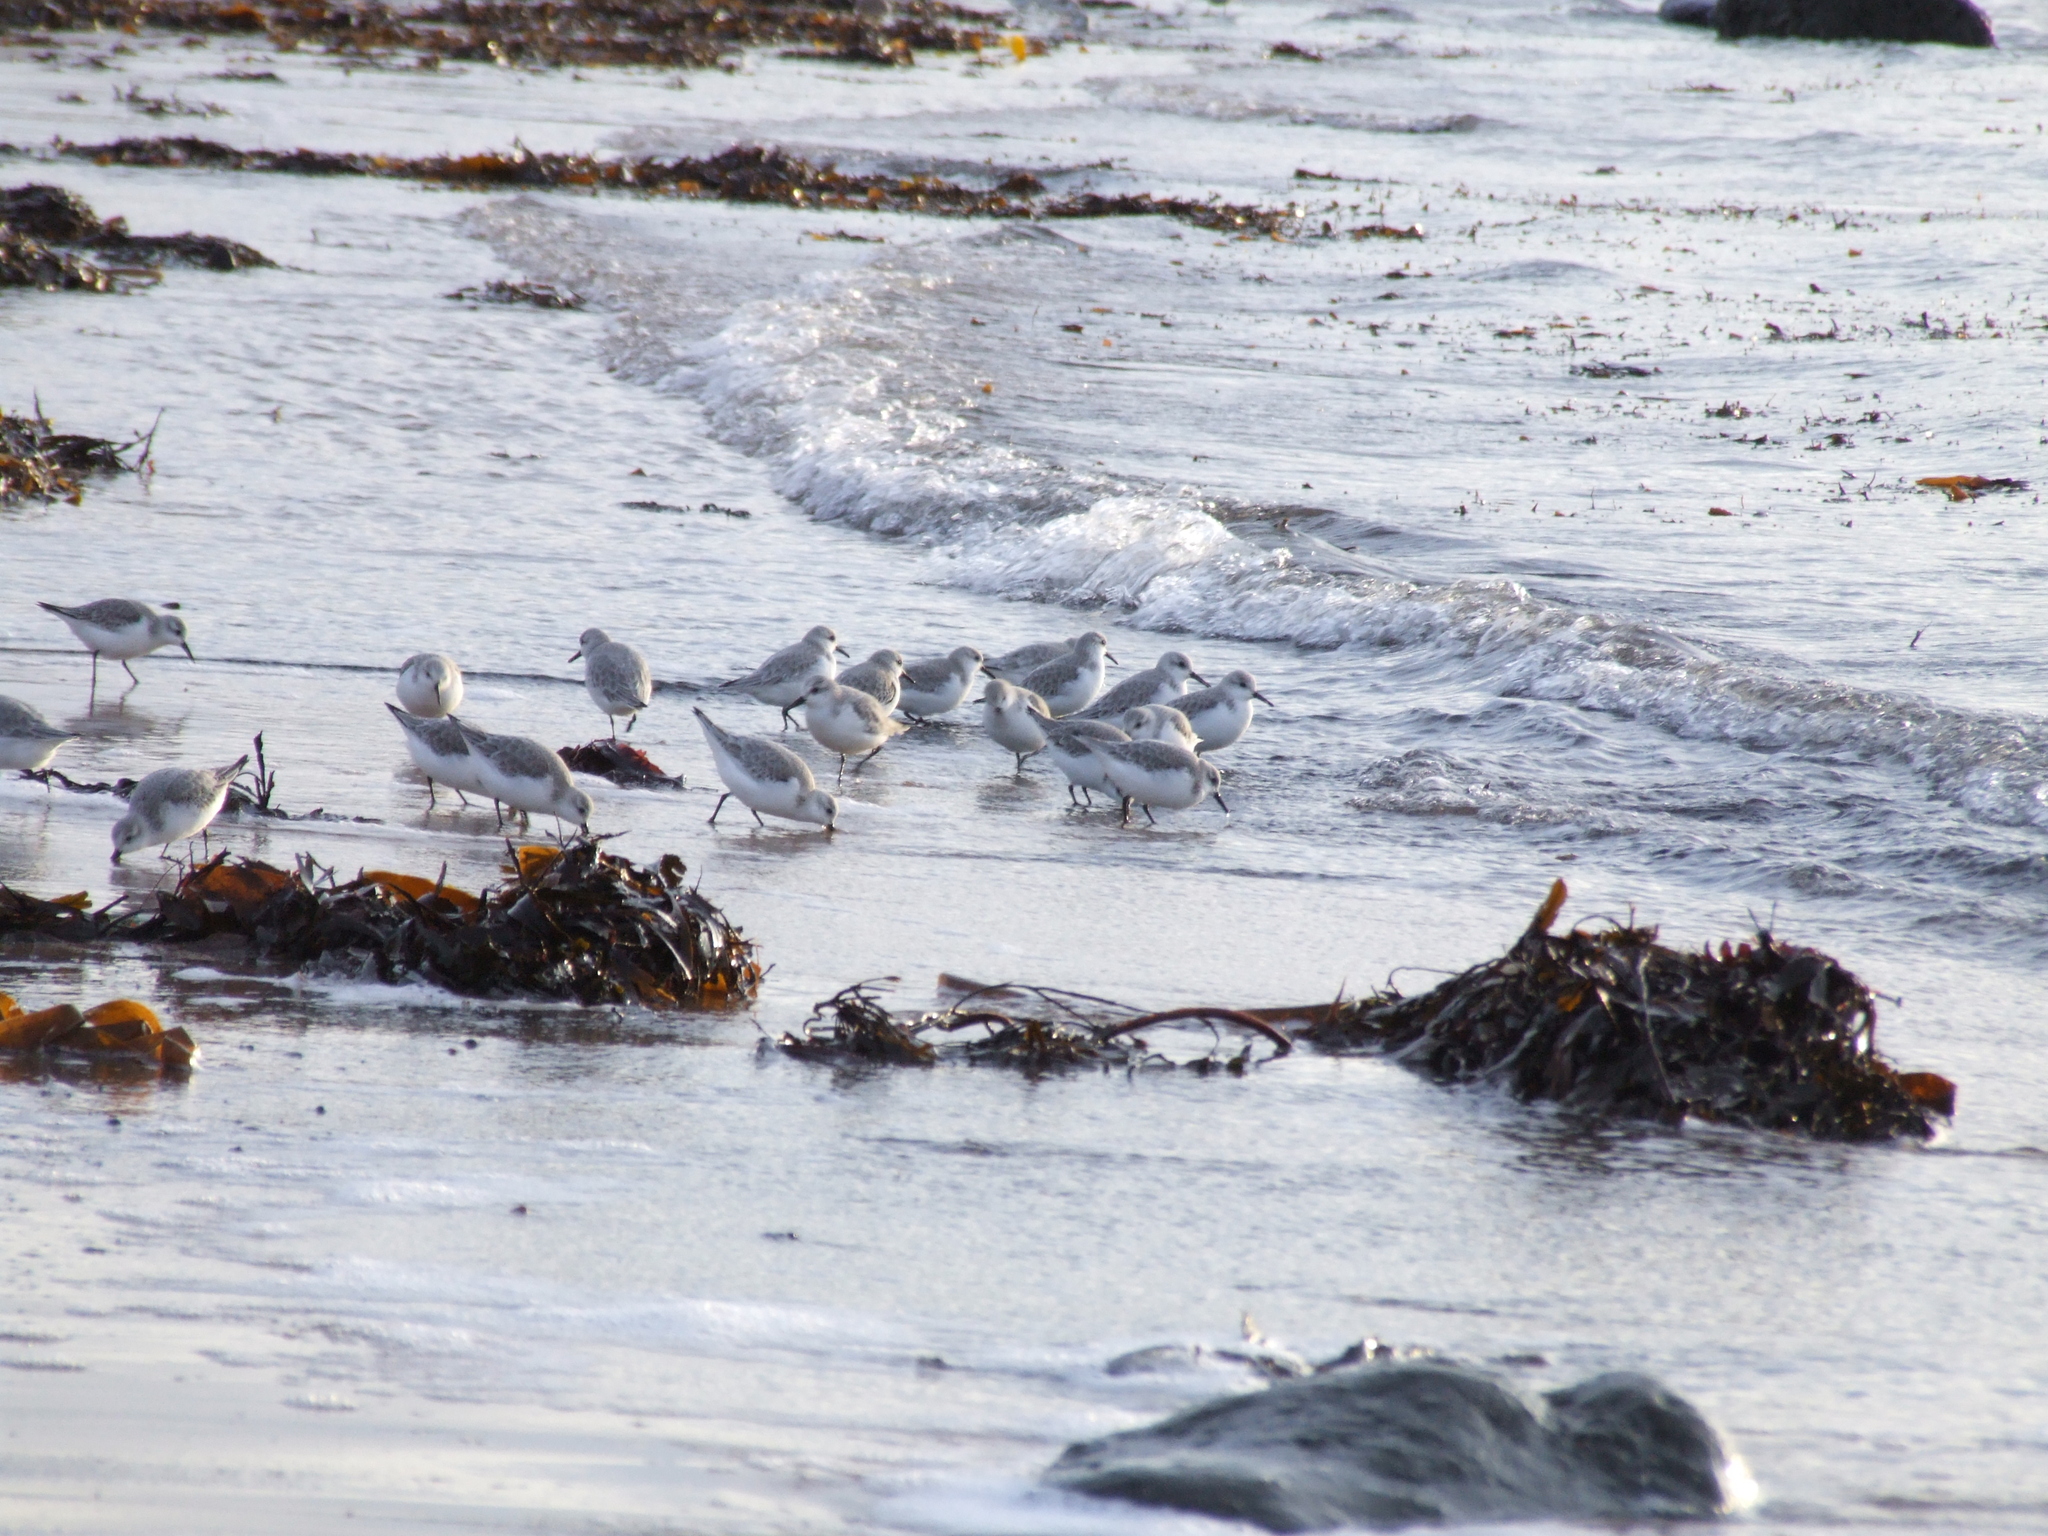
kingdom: Animalia
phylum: Chordata
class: Aves
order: Charadriiformes
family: Scolopacidae
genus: Calidris
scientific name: Calidris alba
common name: Sanderling
